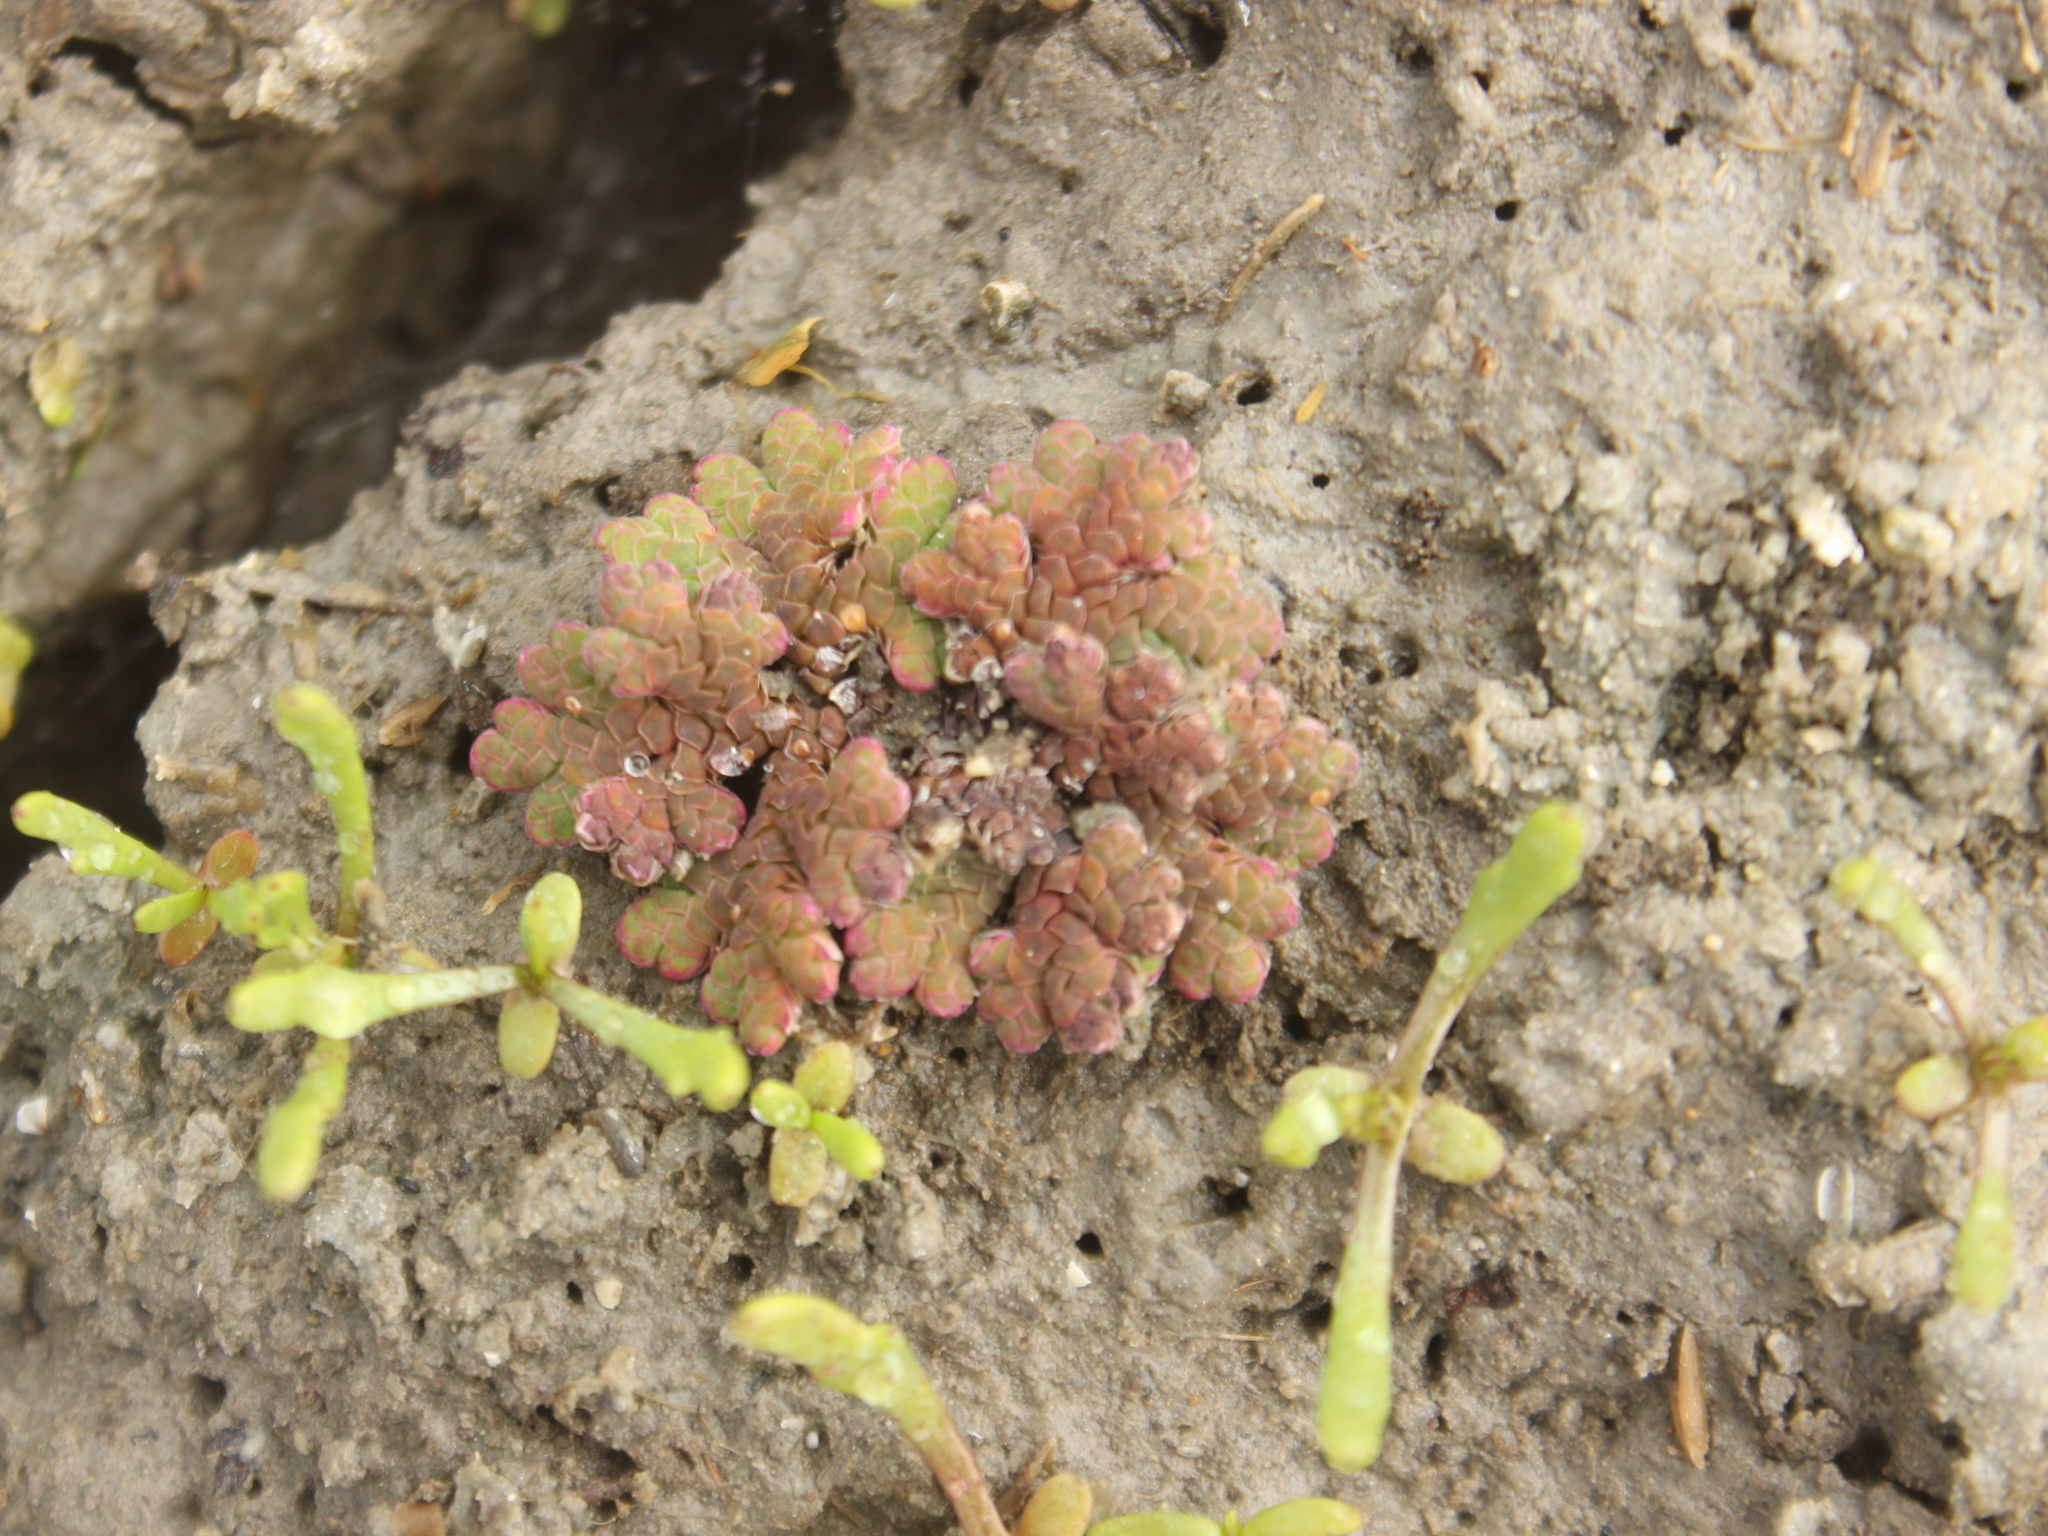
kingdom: Plantae
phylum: Tracheophyta
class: Polypodiopsida
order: Salviniales
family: Salviniaceae
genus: Azolla
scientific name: Azolla rubra
